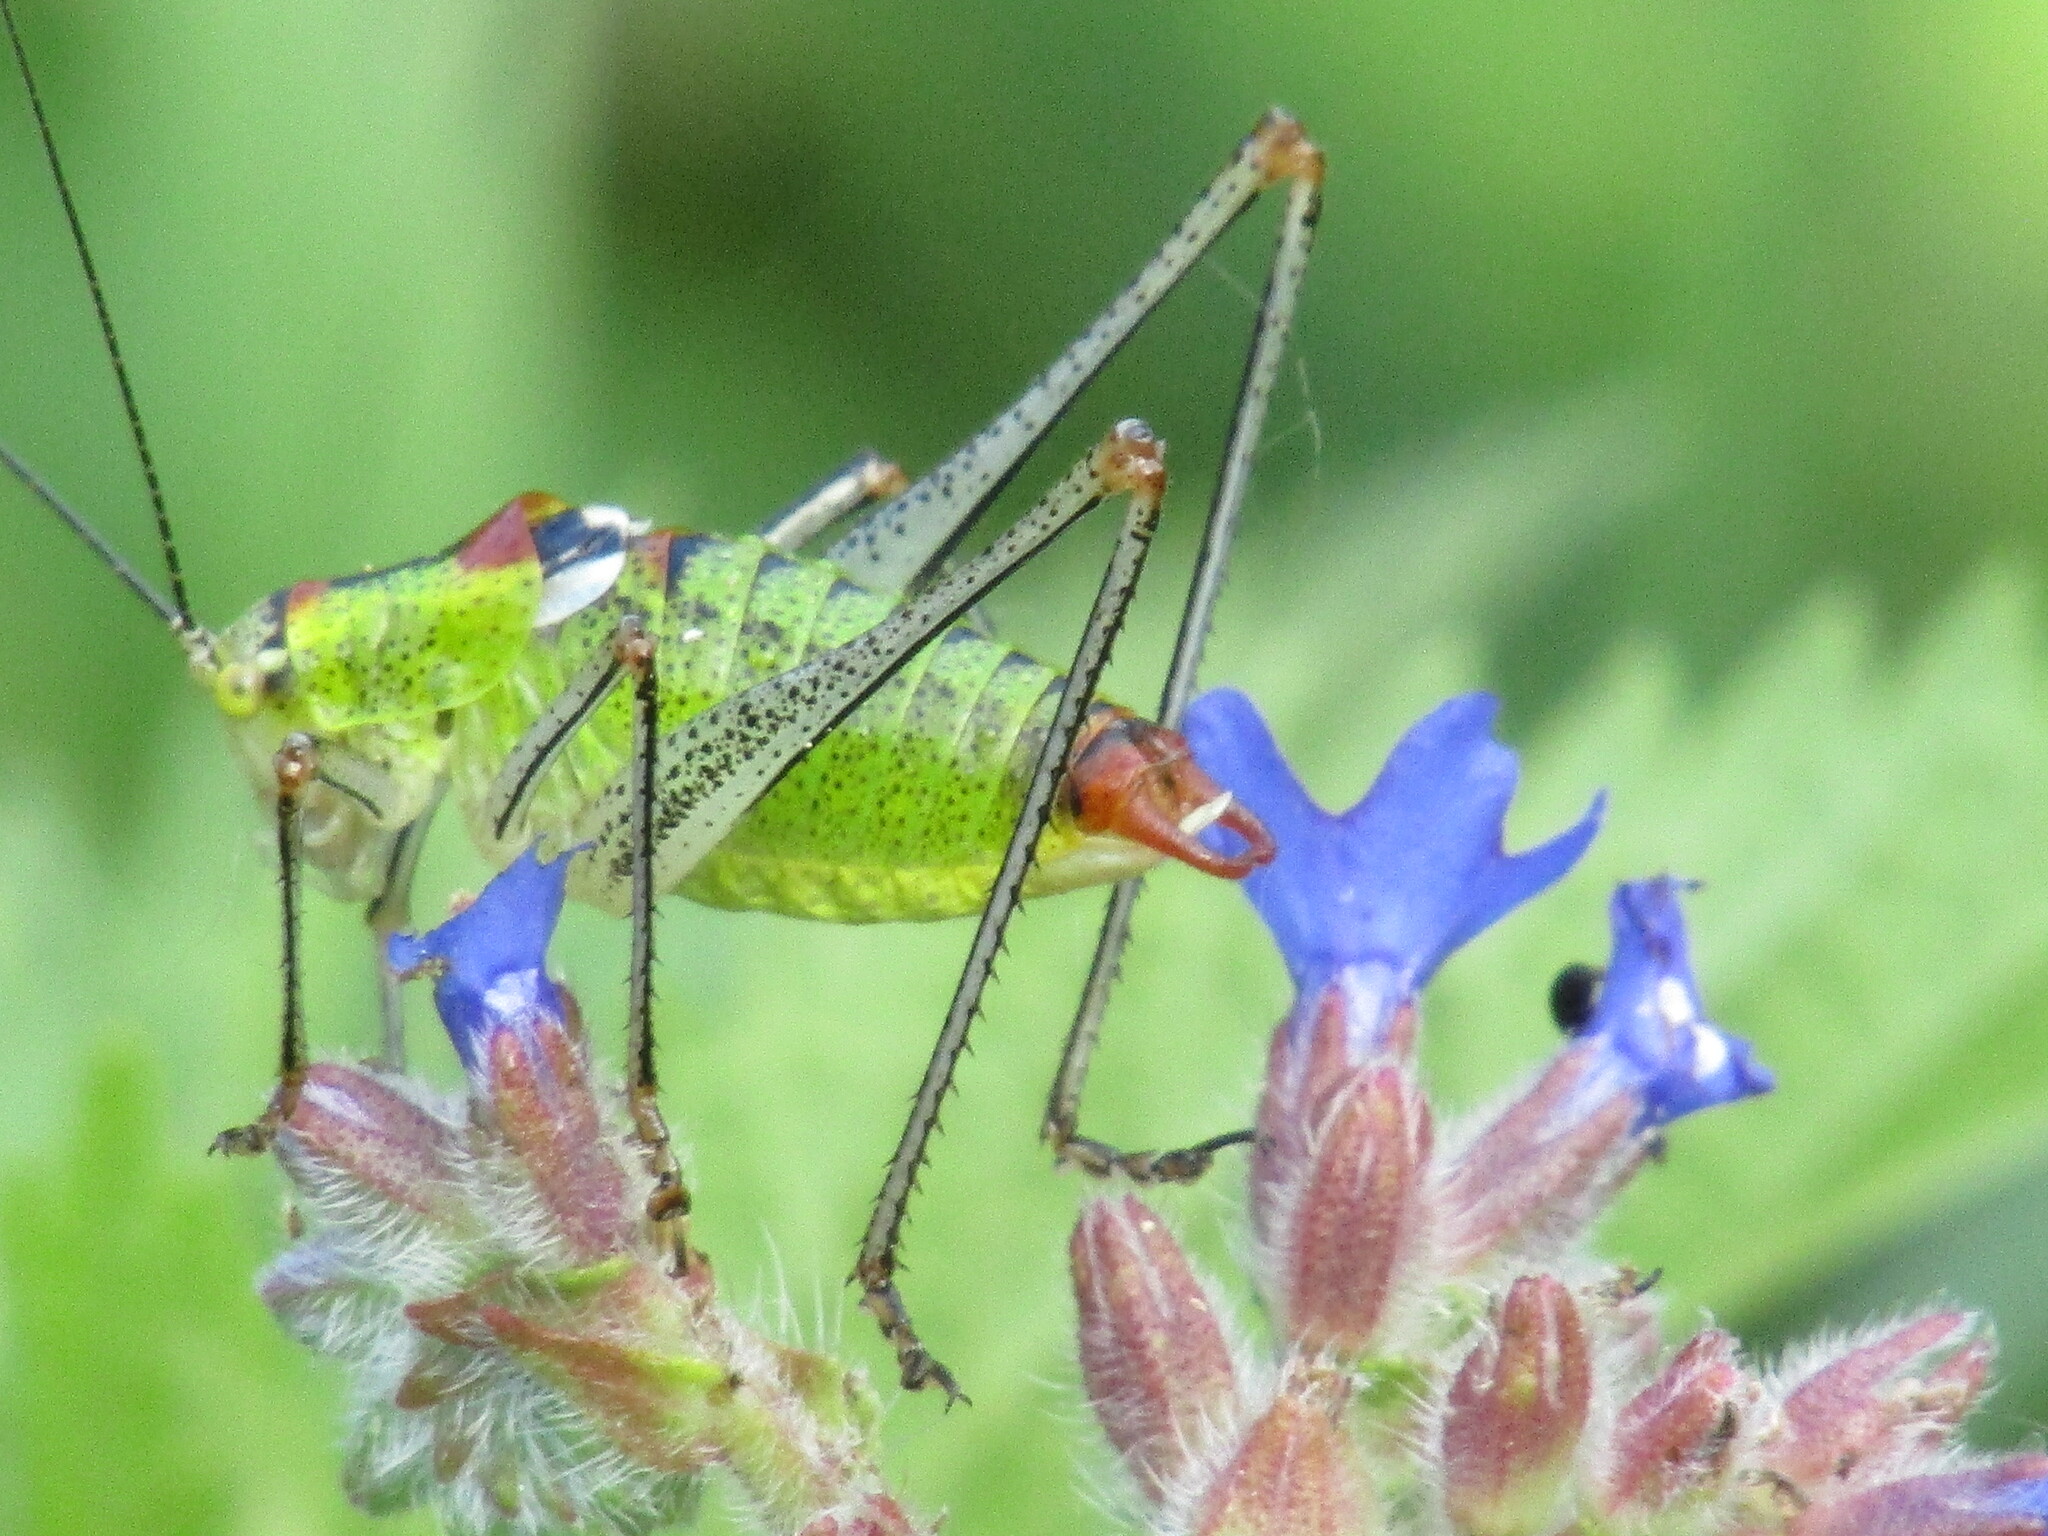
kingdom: Animalia
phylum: Arthropoda
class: Insecta
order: Orthoptera
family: Tettigoniidae
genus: Poecilimon
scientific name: Poecilimon thoracicus
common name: Bellied bright bush-cricket
